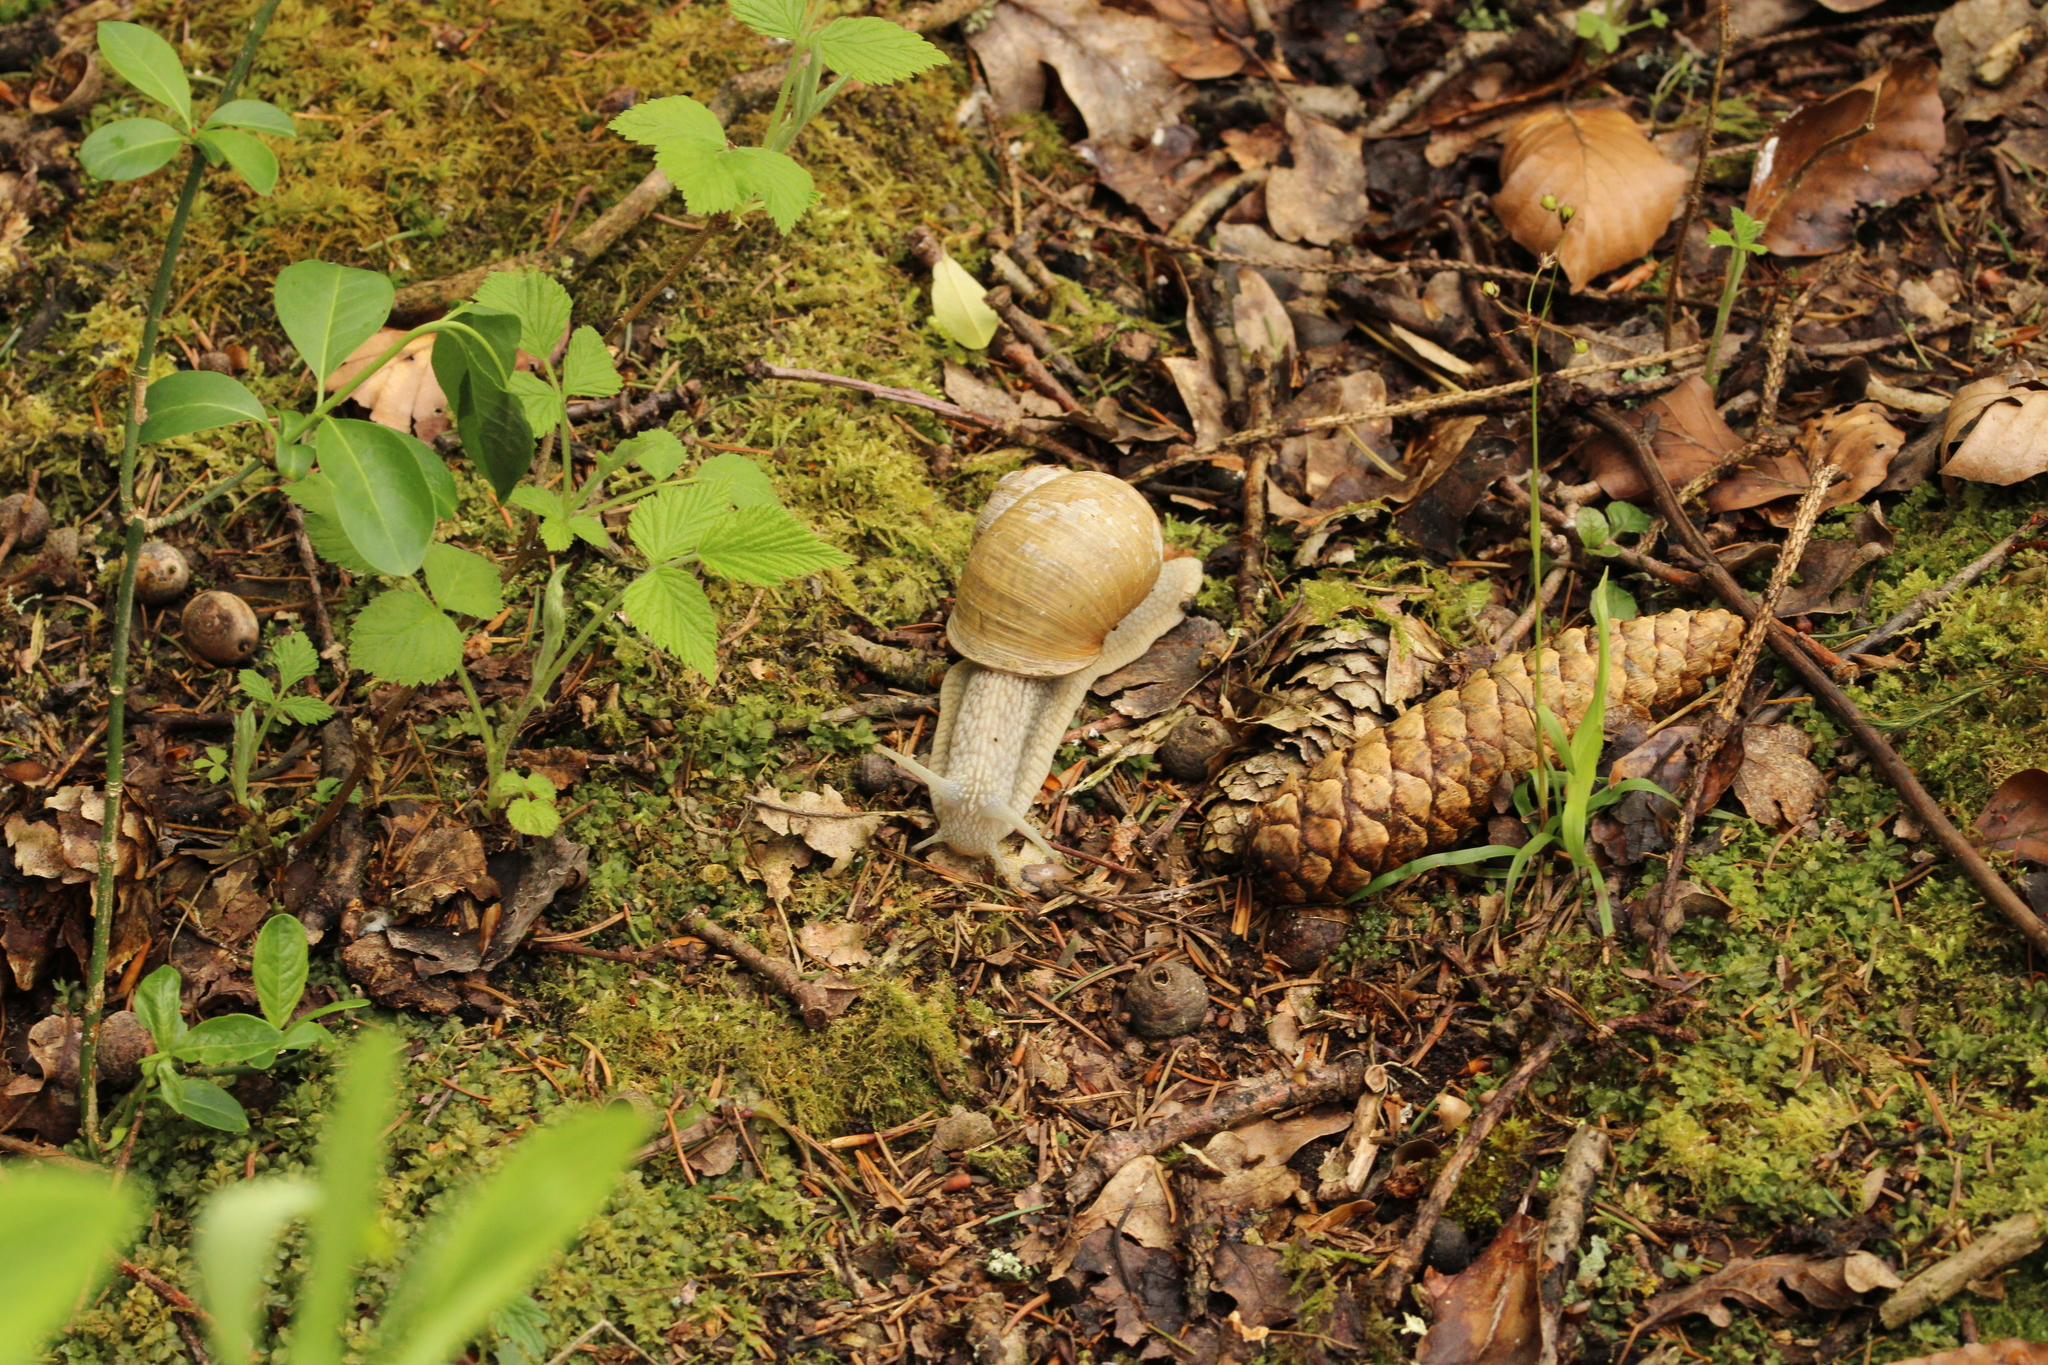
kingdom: Animalia
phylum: Mollusca
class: Gastropoda
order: Stylommatophora
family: Helicidae
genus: Helix
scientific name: Helix pomatia
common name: Roman snail
